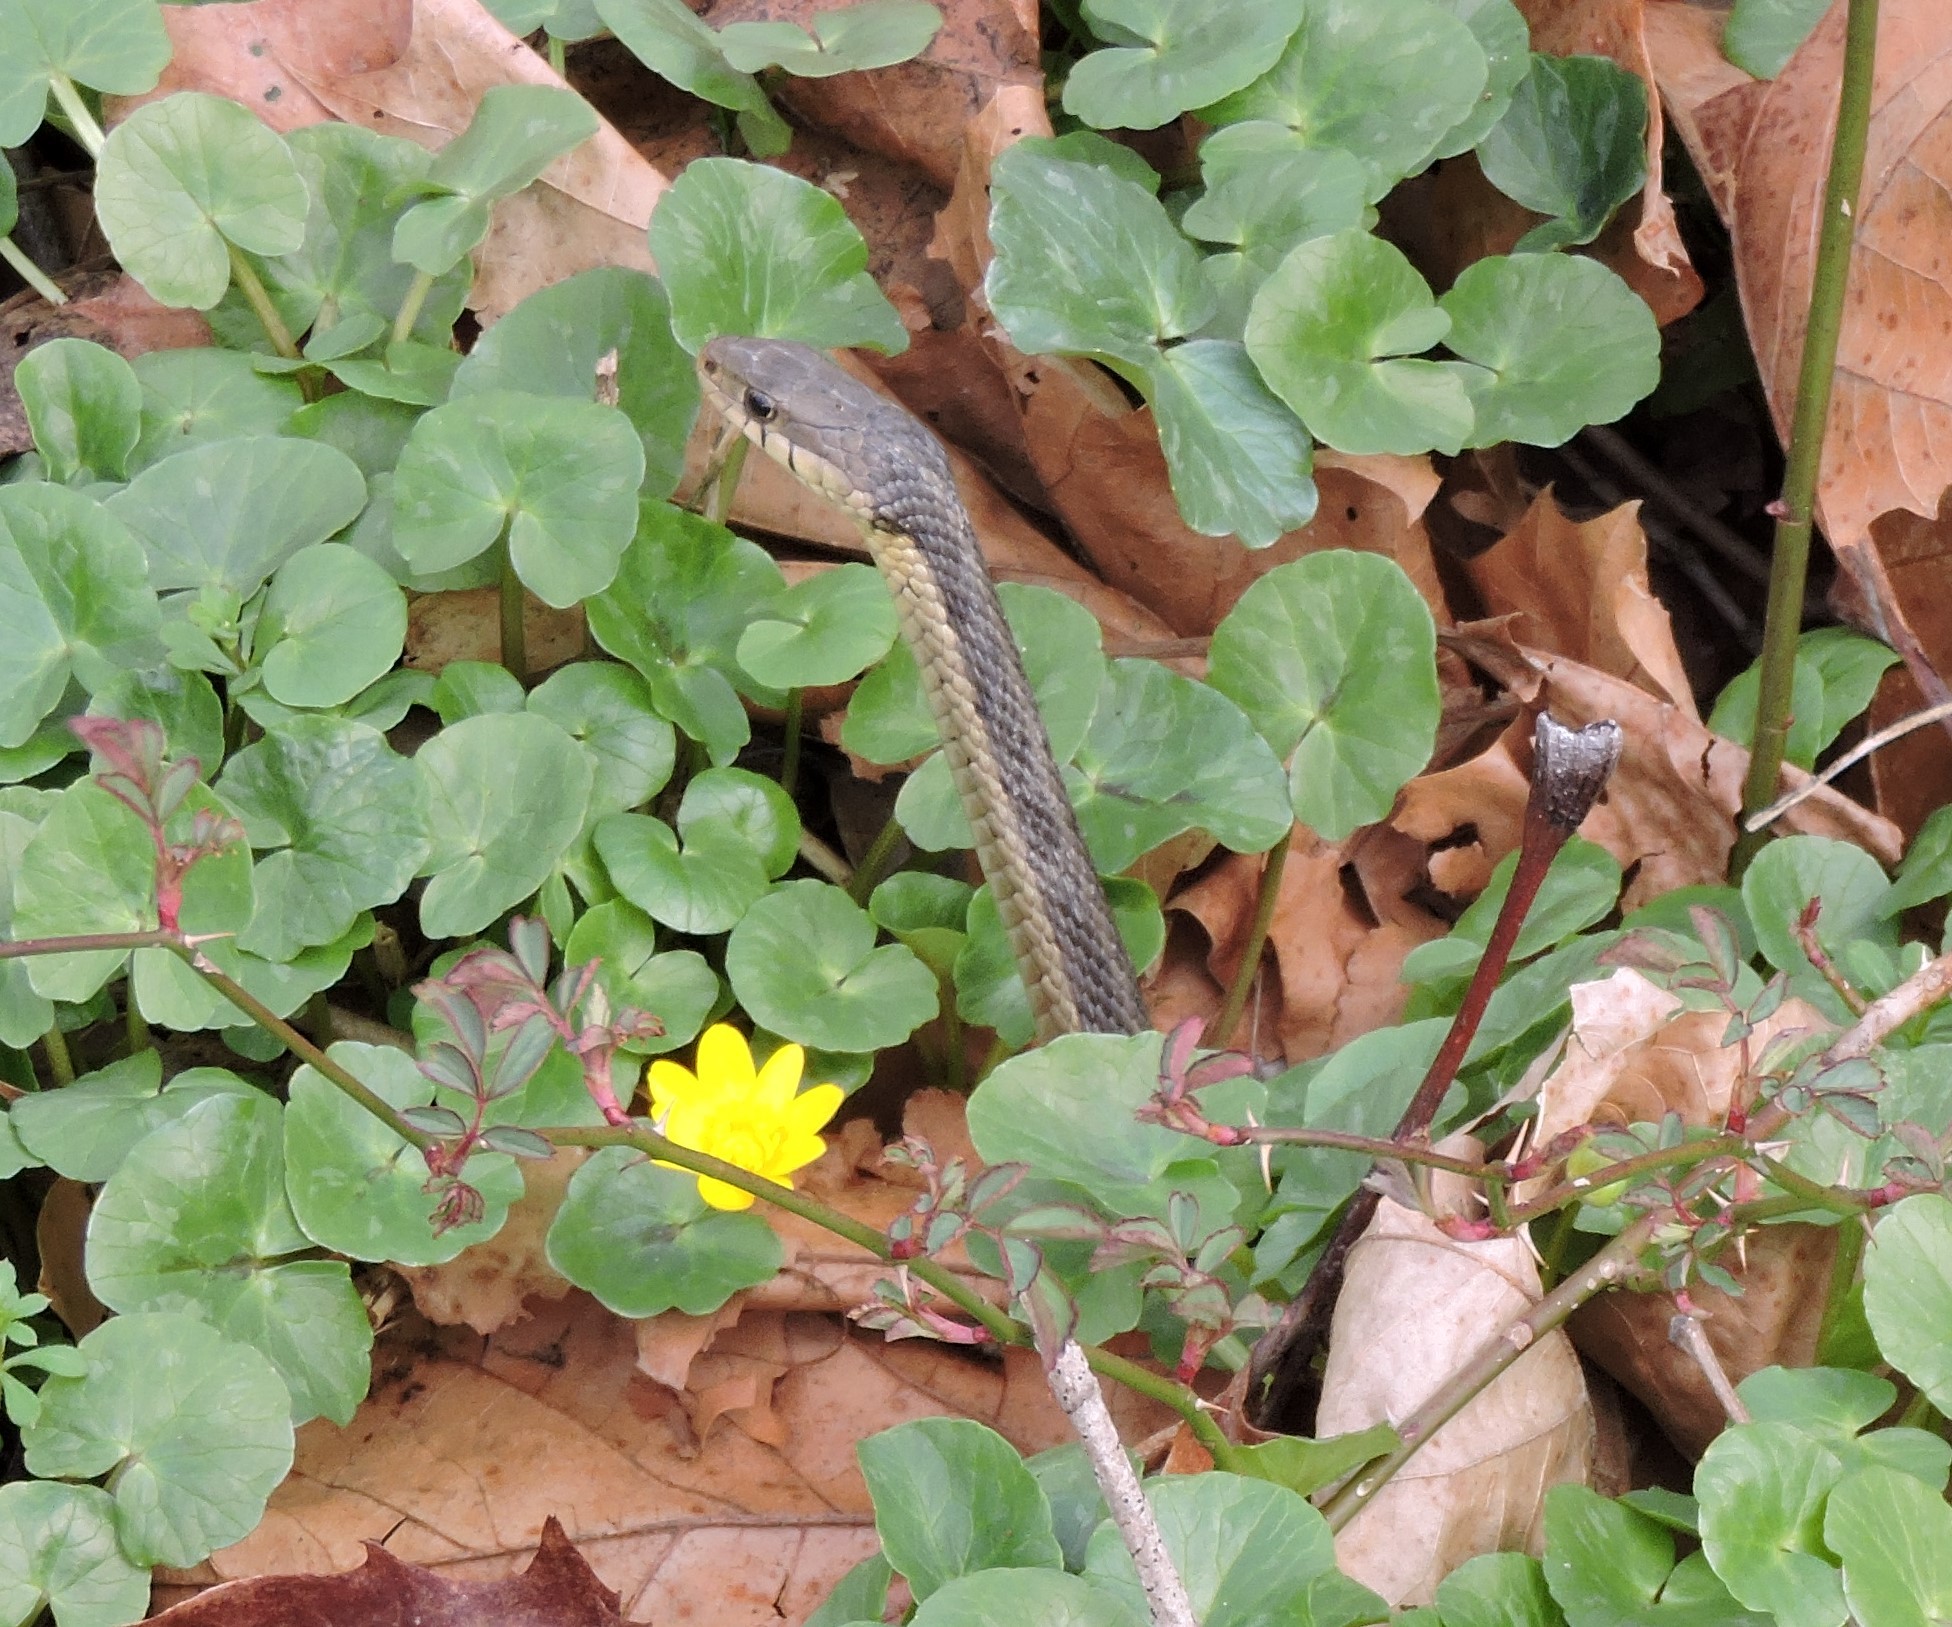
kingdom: Animalia
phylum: Chordata
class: Squamata
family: Colubridae
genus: Thamnophis
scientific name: Thamnophis sirtalis
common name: Common garter snake
